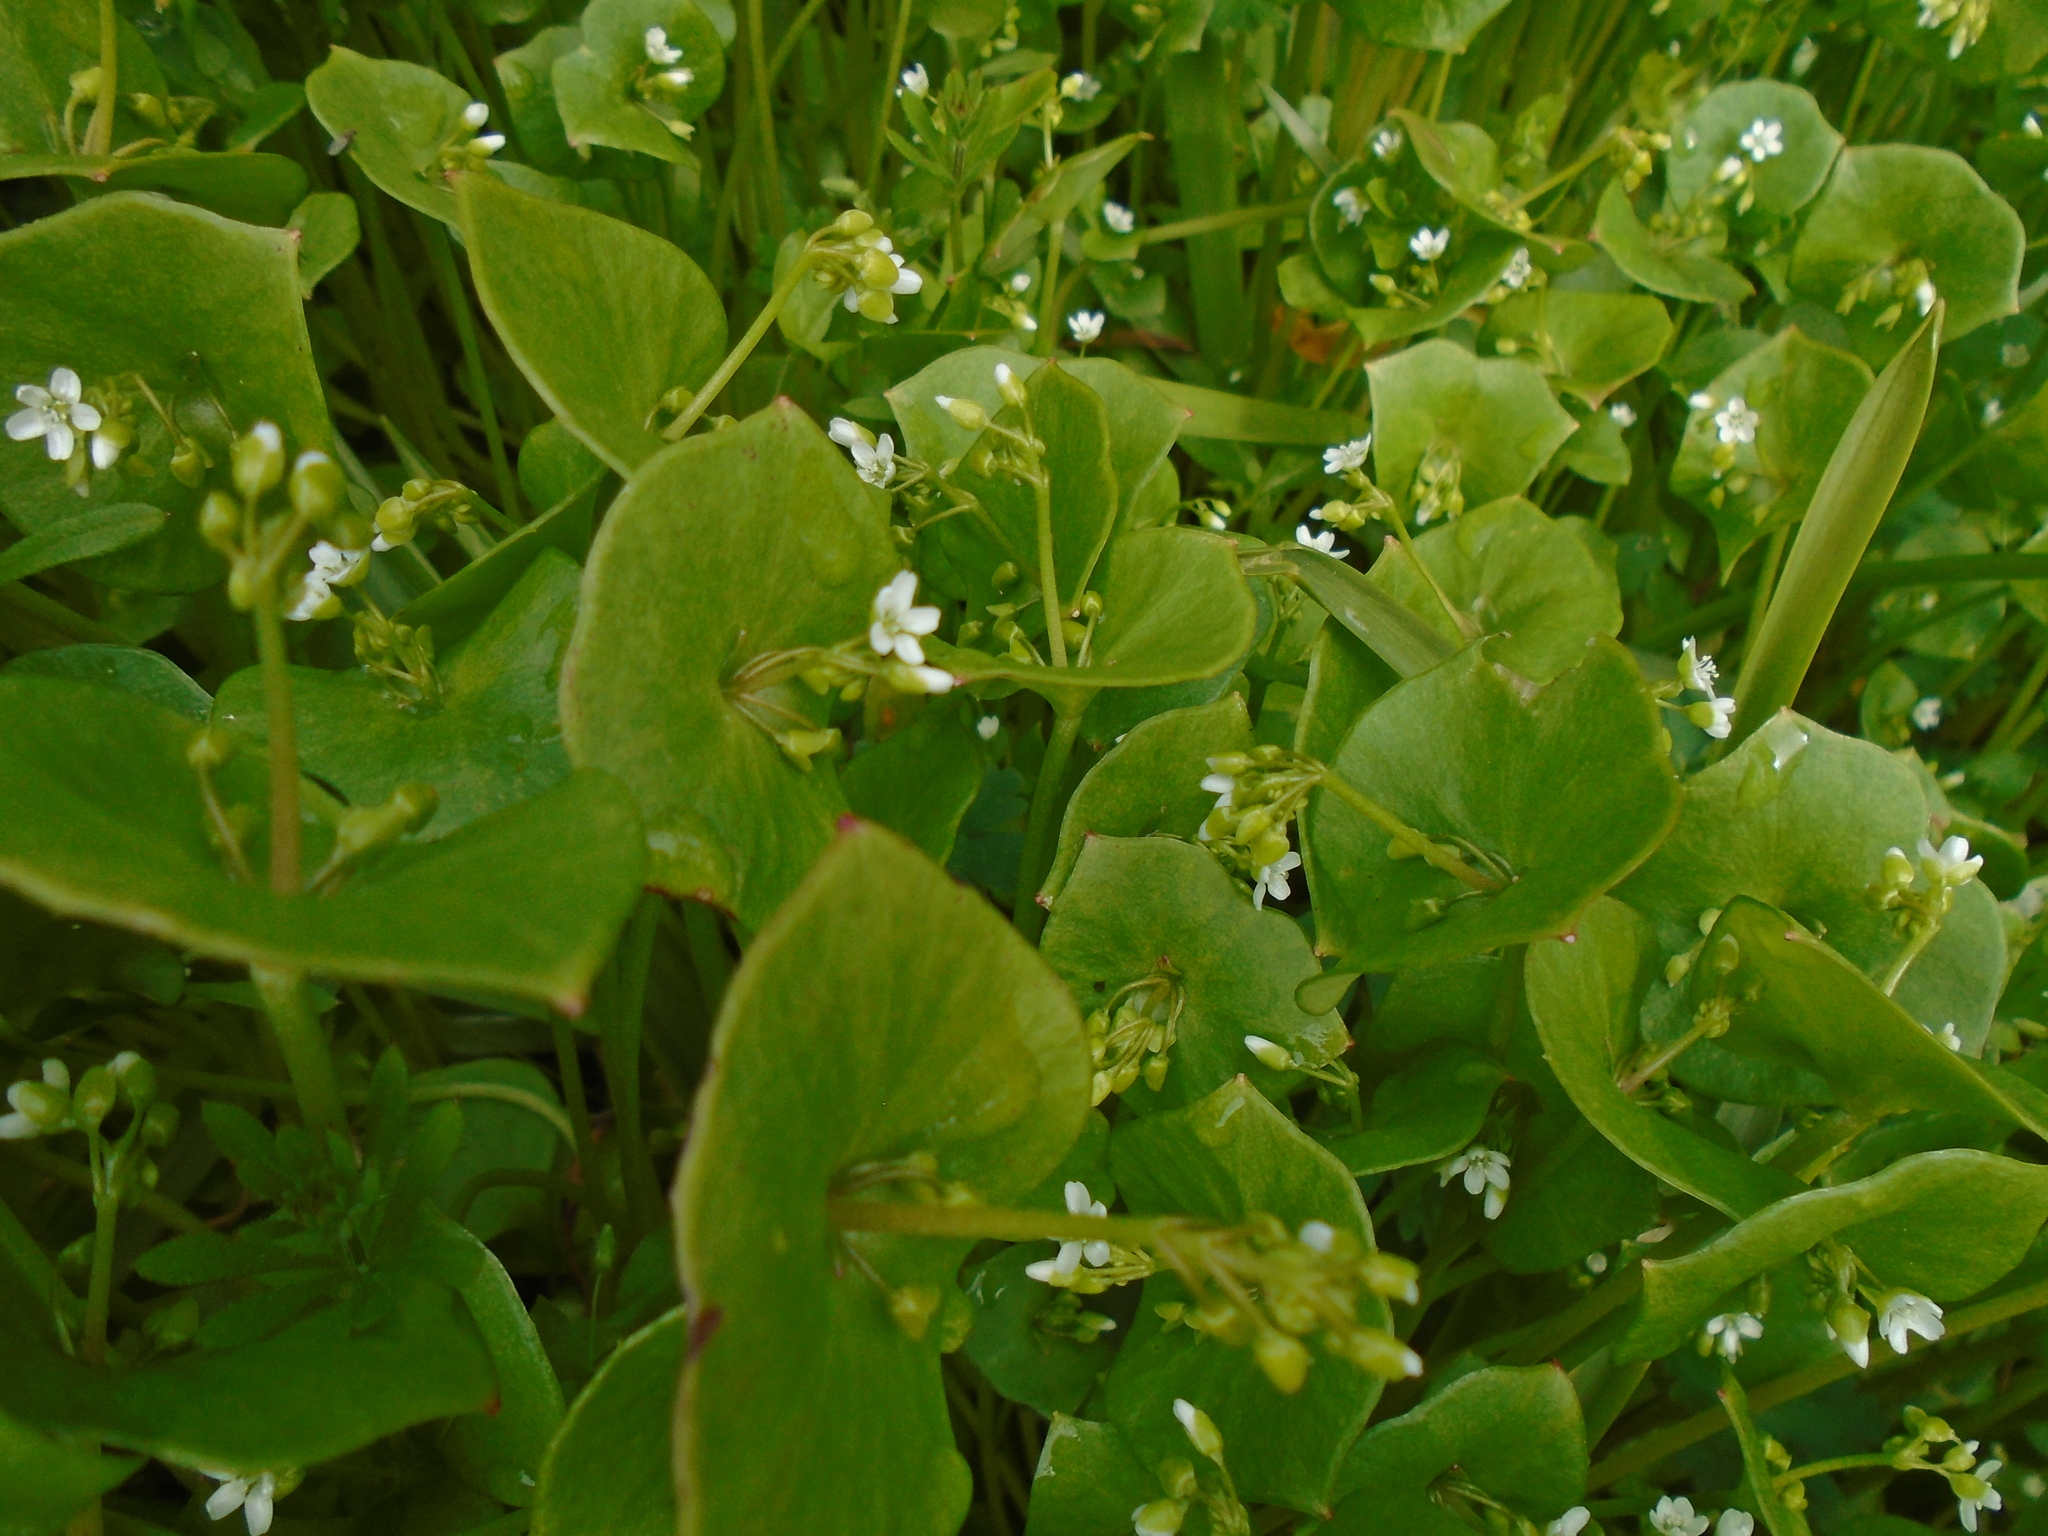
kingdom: Plantae
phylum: Tracheophyta
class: Magnoliopsida
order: Caryophyllales
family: Montiaceae
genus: Claytonia
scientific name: Claytonia perfoliata
